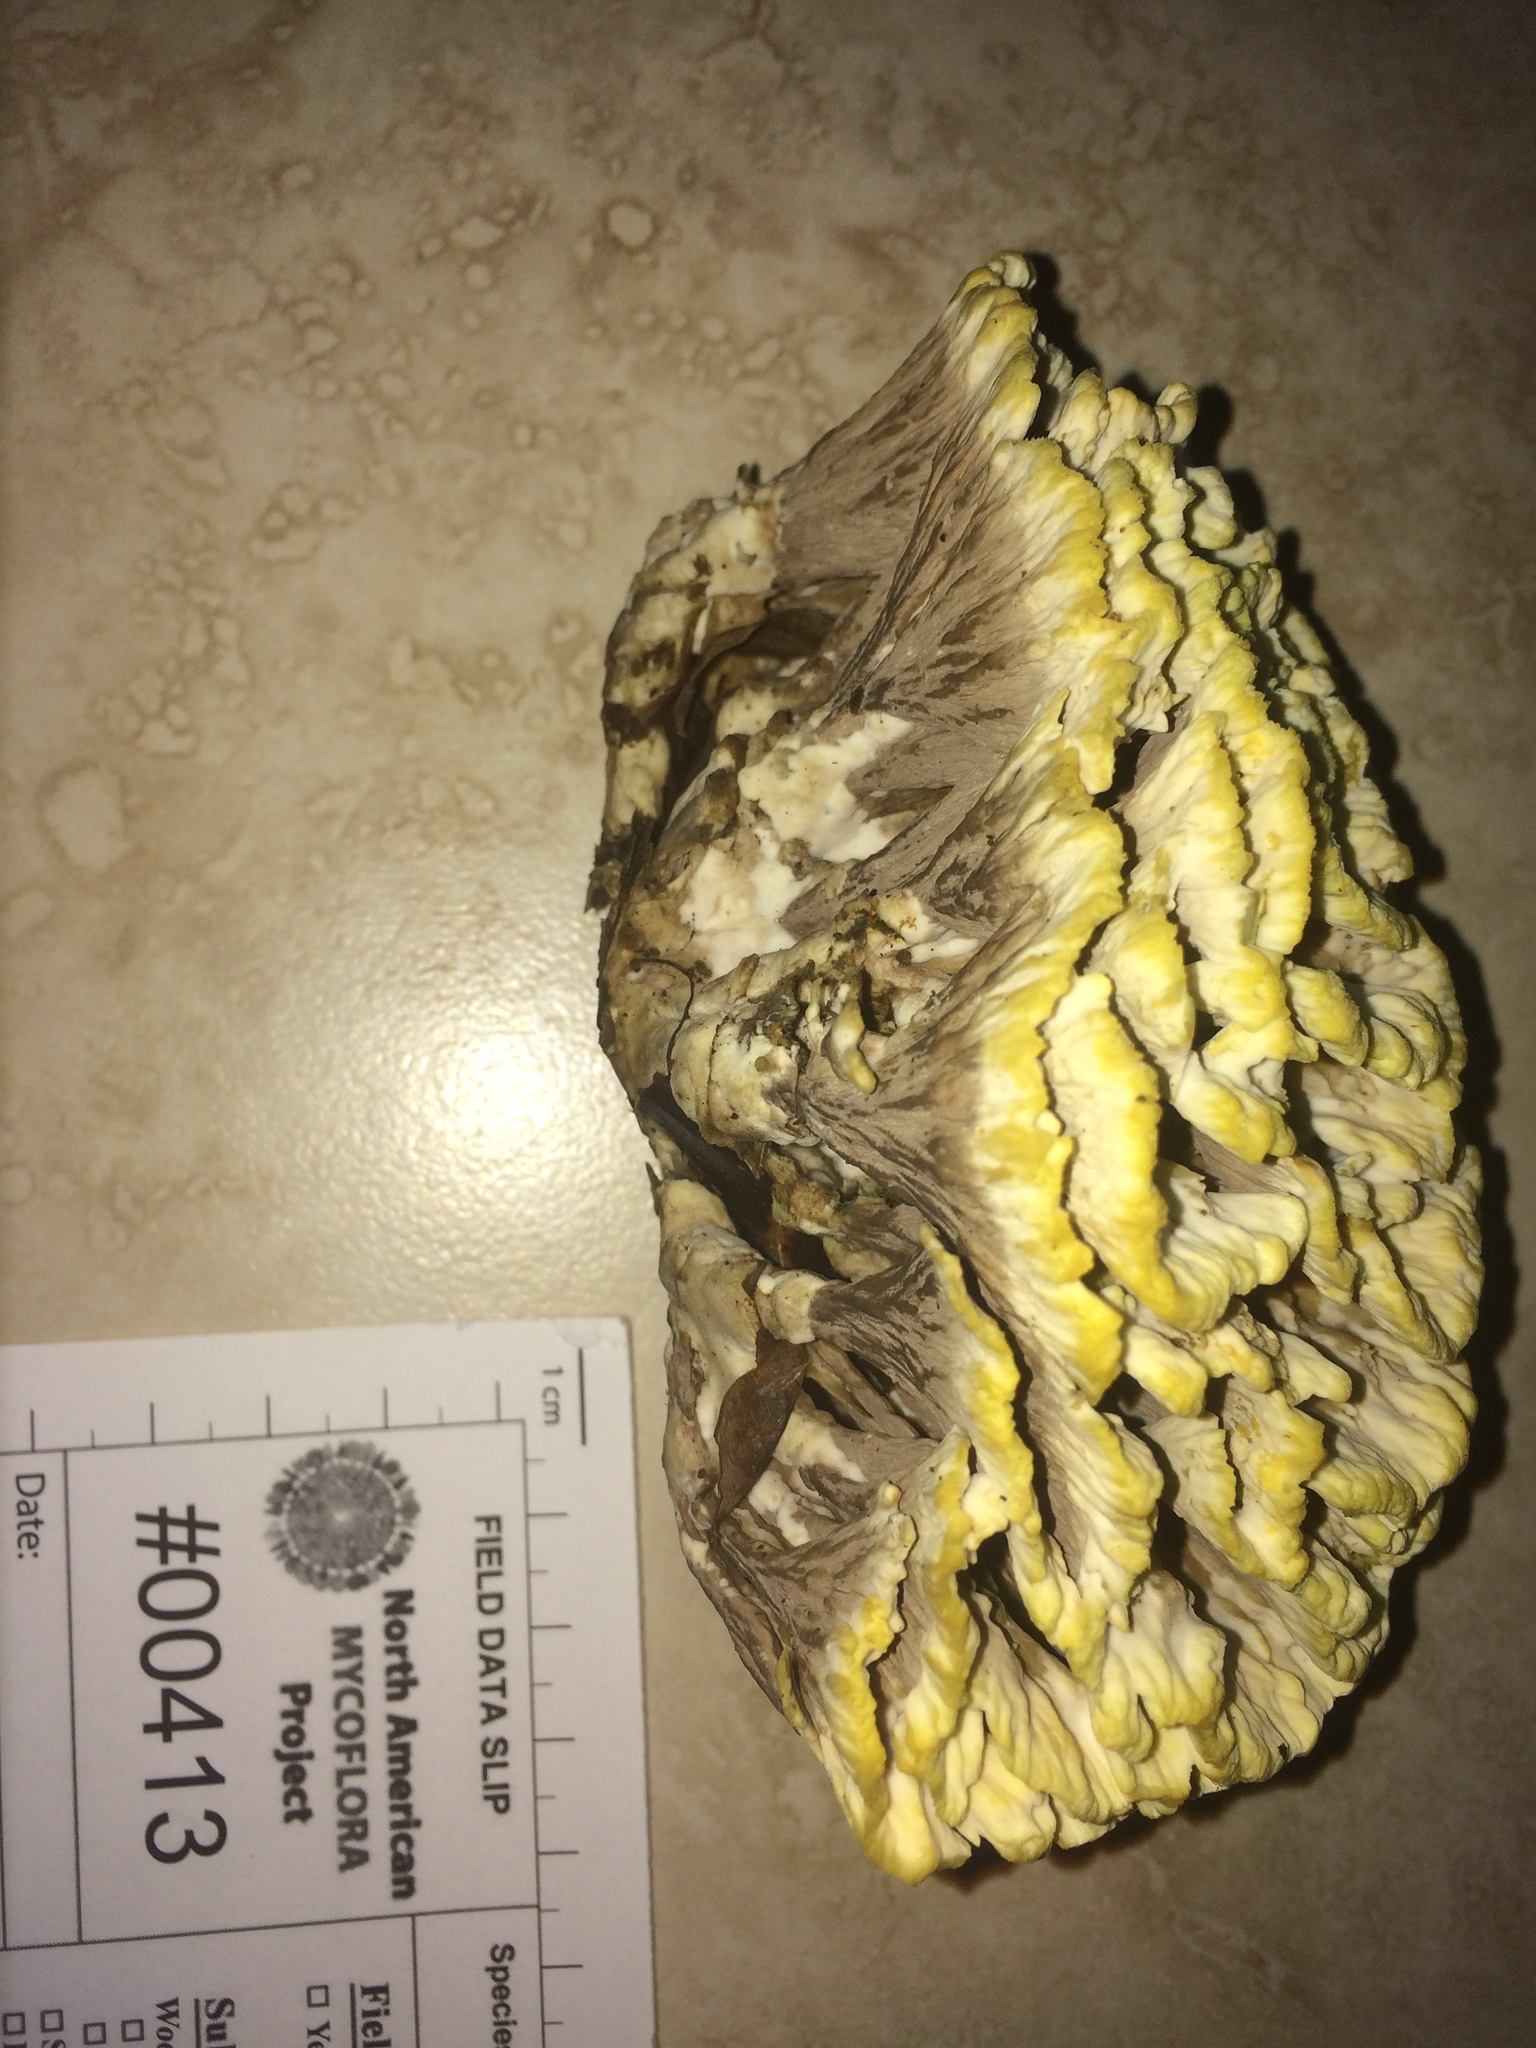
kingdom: Fungi
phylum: Basidiomycota
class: Agaricomycetes
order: Thelephorales
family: Thelephoraceae
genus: Thelephora
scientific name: Thelephora vialis
